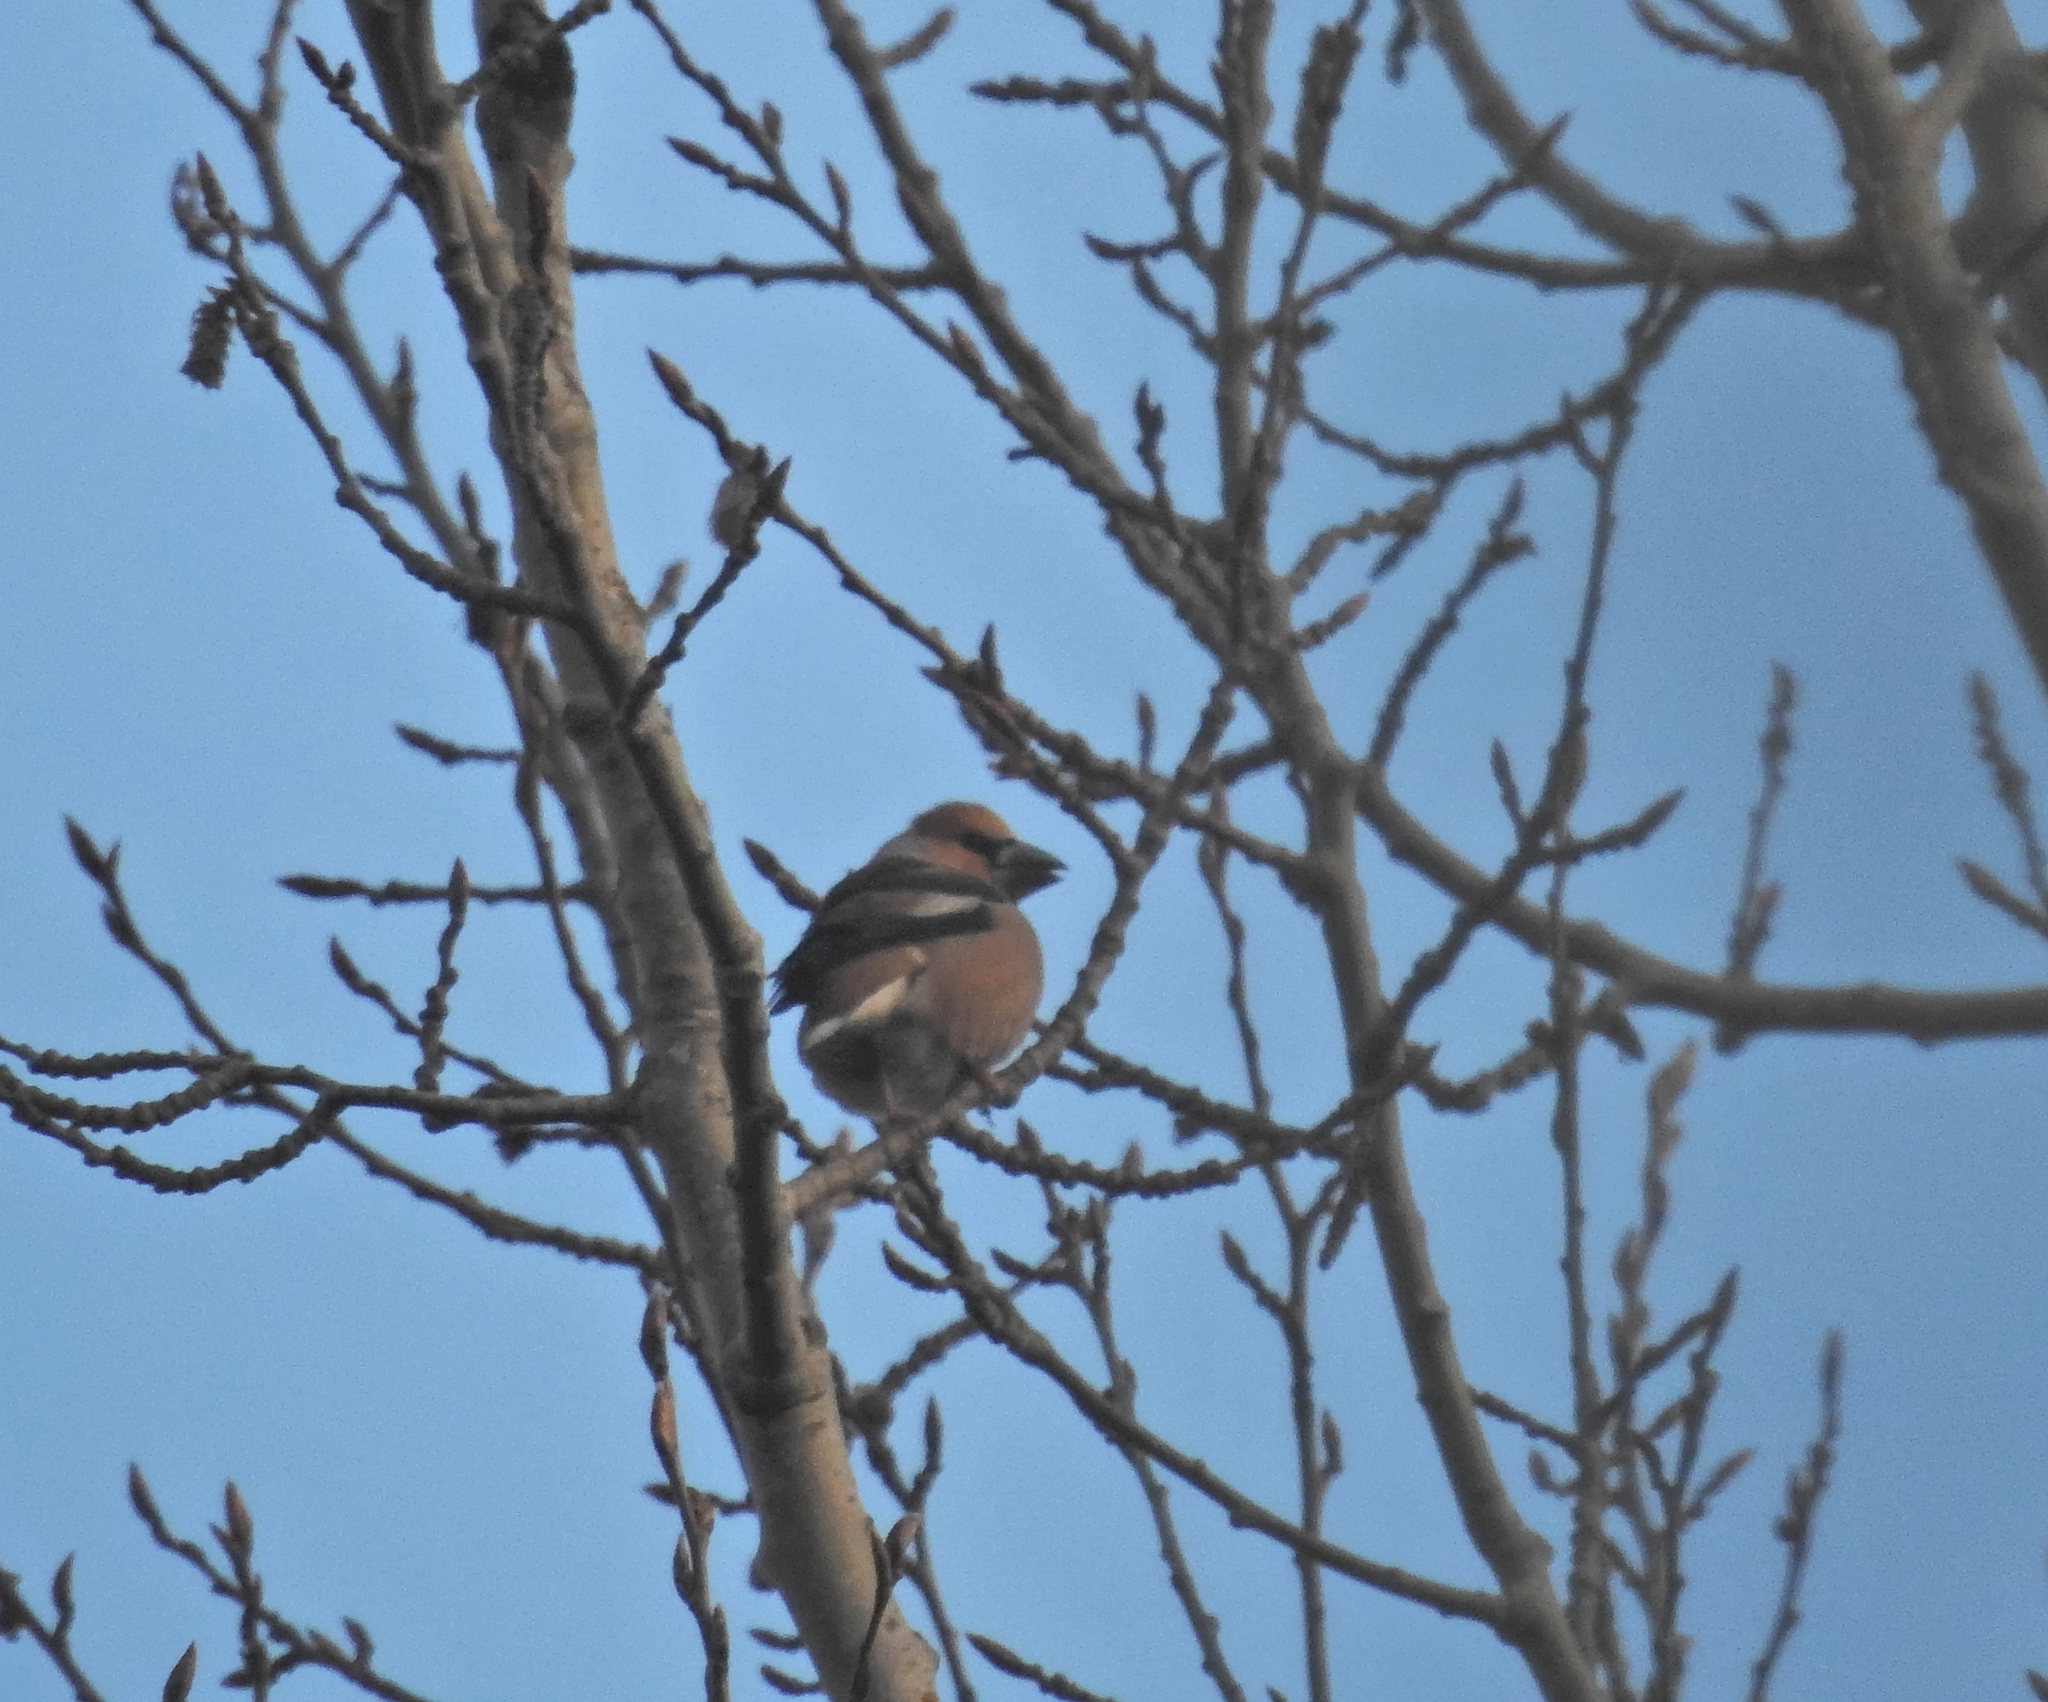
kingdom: Animalia
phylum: Chordata
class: Aves
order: Passeriformes
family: Fringillidae
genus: Coccothraustes
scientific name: Coccothraustes coccothraustes
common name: Hawfinch
